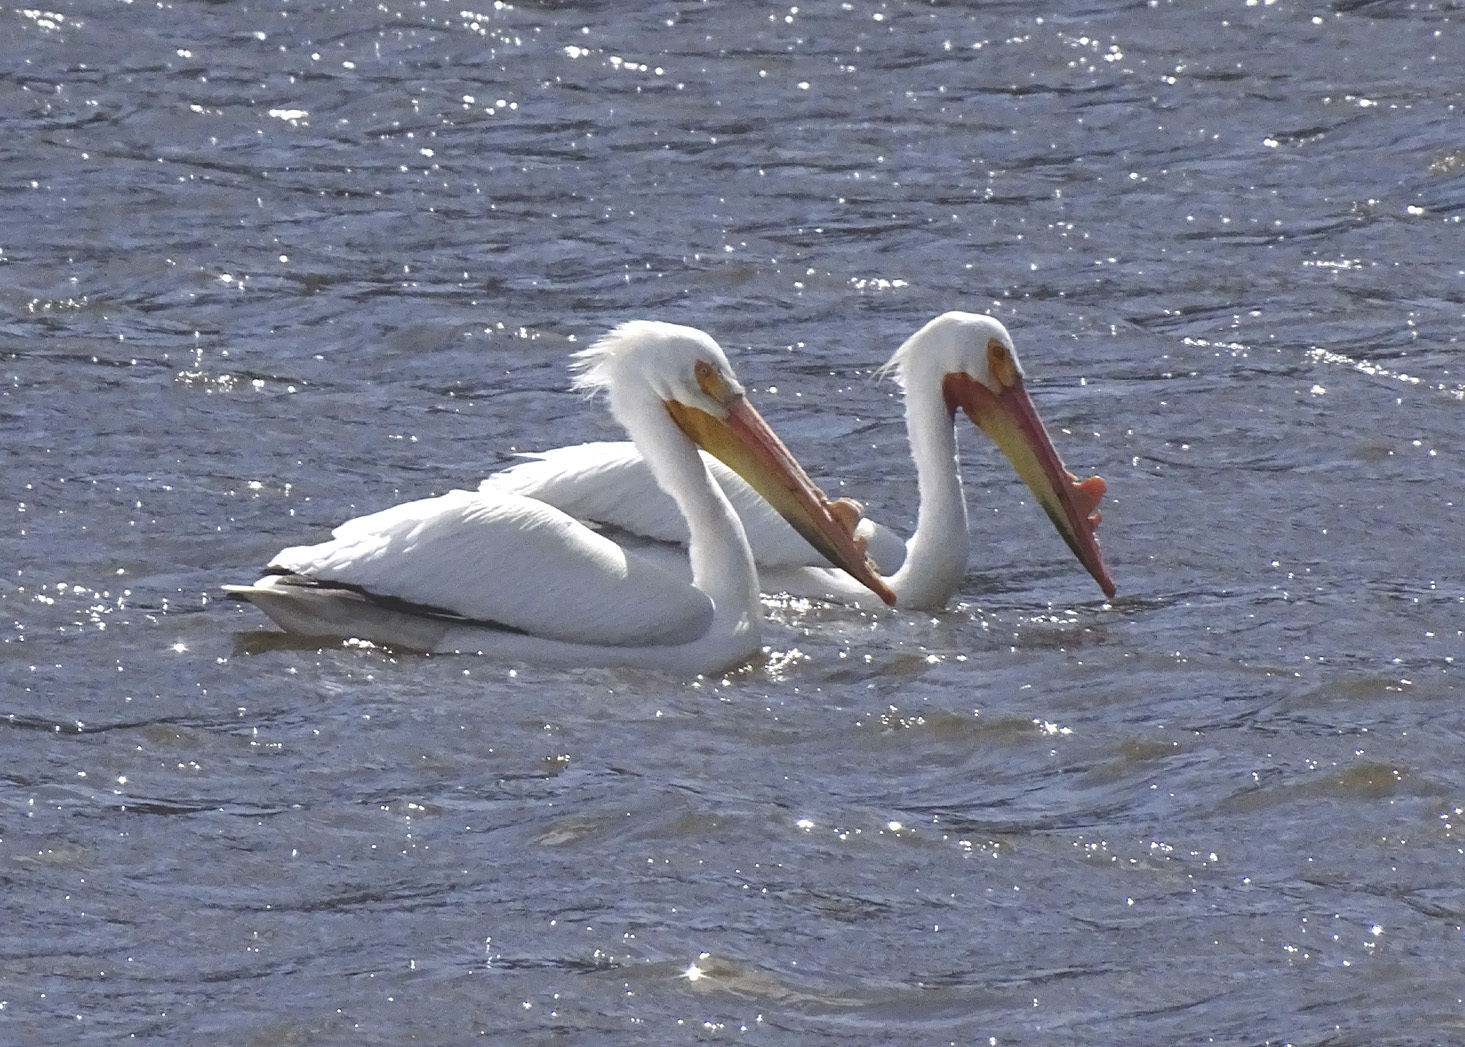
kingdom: Animalia
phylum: Chordata
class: Aves
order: Pelecaniformes
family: Pelecanidae
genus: Pelecanus
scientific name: Pelecanus erythrorhynchos
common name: American white pelican
